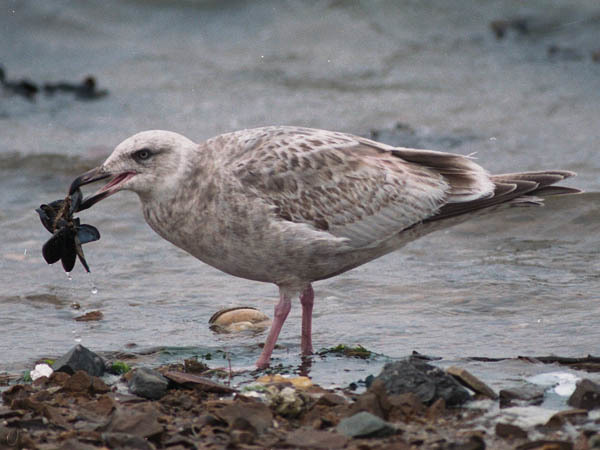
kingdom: Animalia
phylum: Chordata
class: Aves
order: Charadriiformes
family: Laridae
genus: Larus
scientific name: Larus schistisagus
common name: Slaty-backed gull
